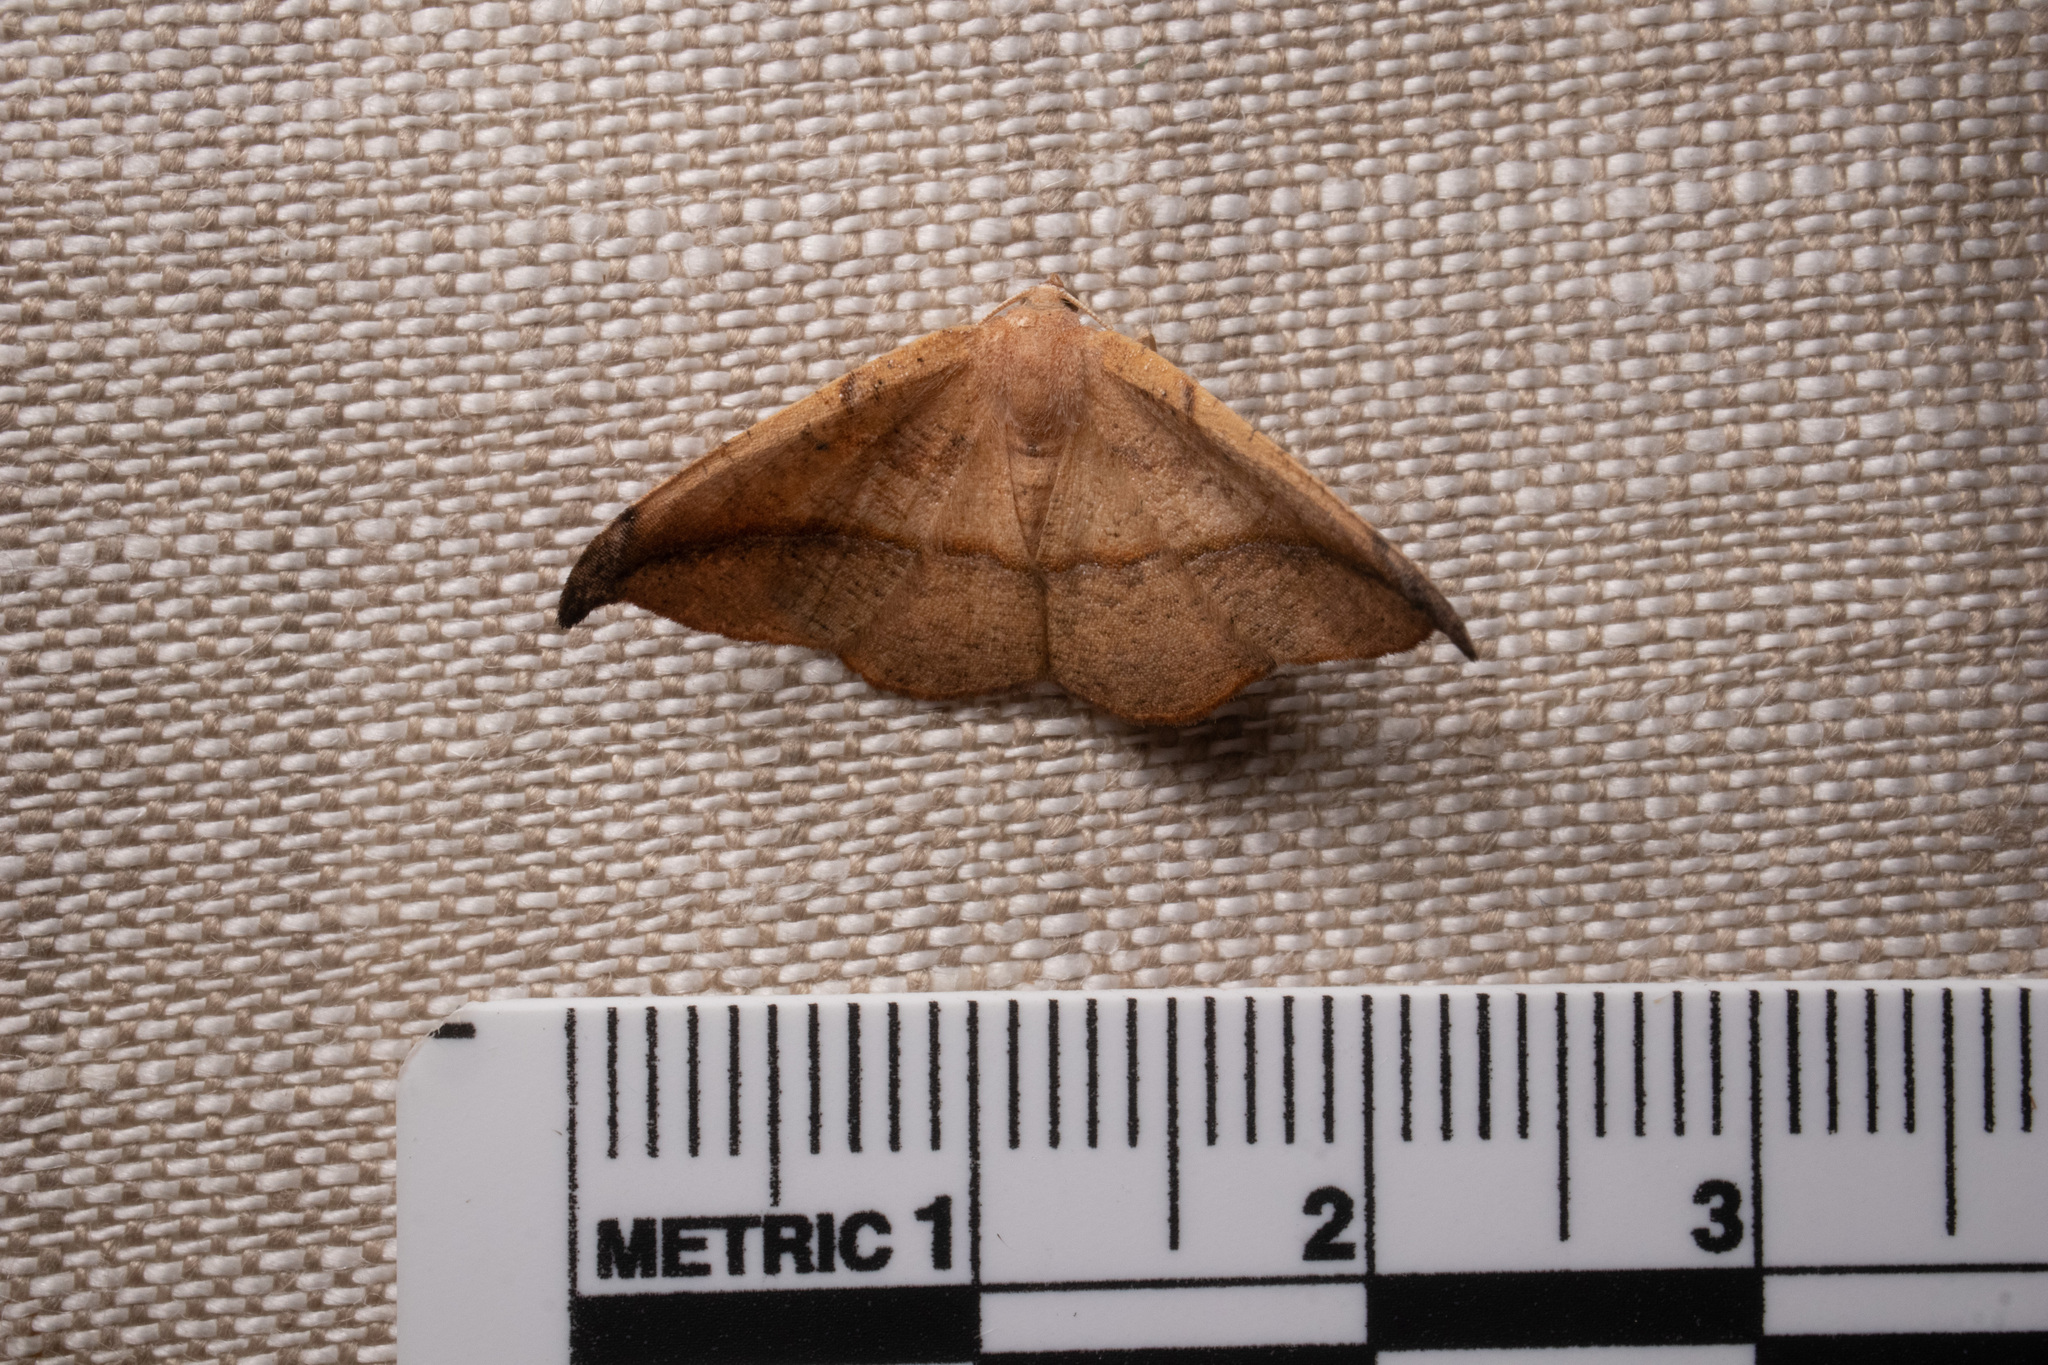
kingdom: Animalia
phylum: Arthropoda
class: Insecta
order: Lepidoptera
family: Geometridae
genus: Patalene
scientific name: Patalene olyzonaria
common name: Juniper geometer moth
